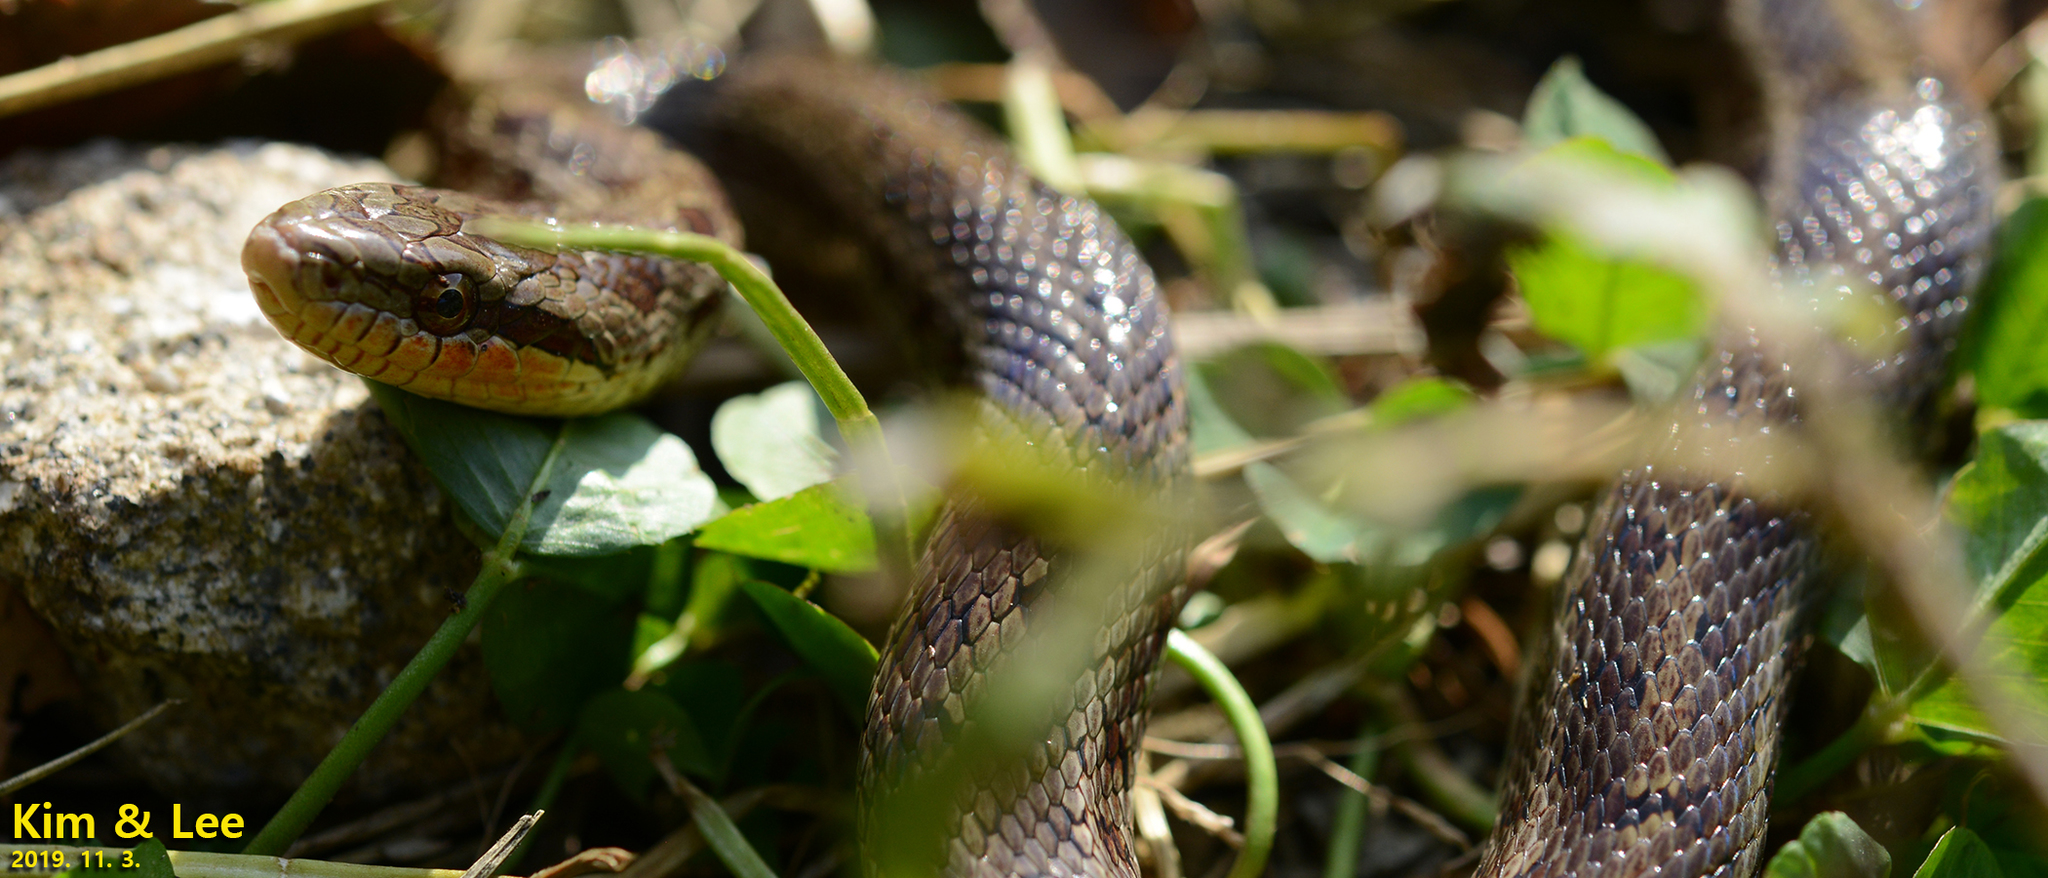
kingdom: Animalia
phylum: Chordata
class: Squamata
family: Colubridae
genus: Elaphe
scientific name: Elaphe dione
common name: Dione ratsnake
